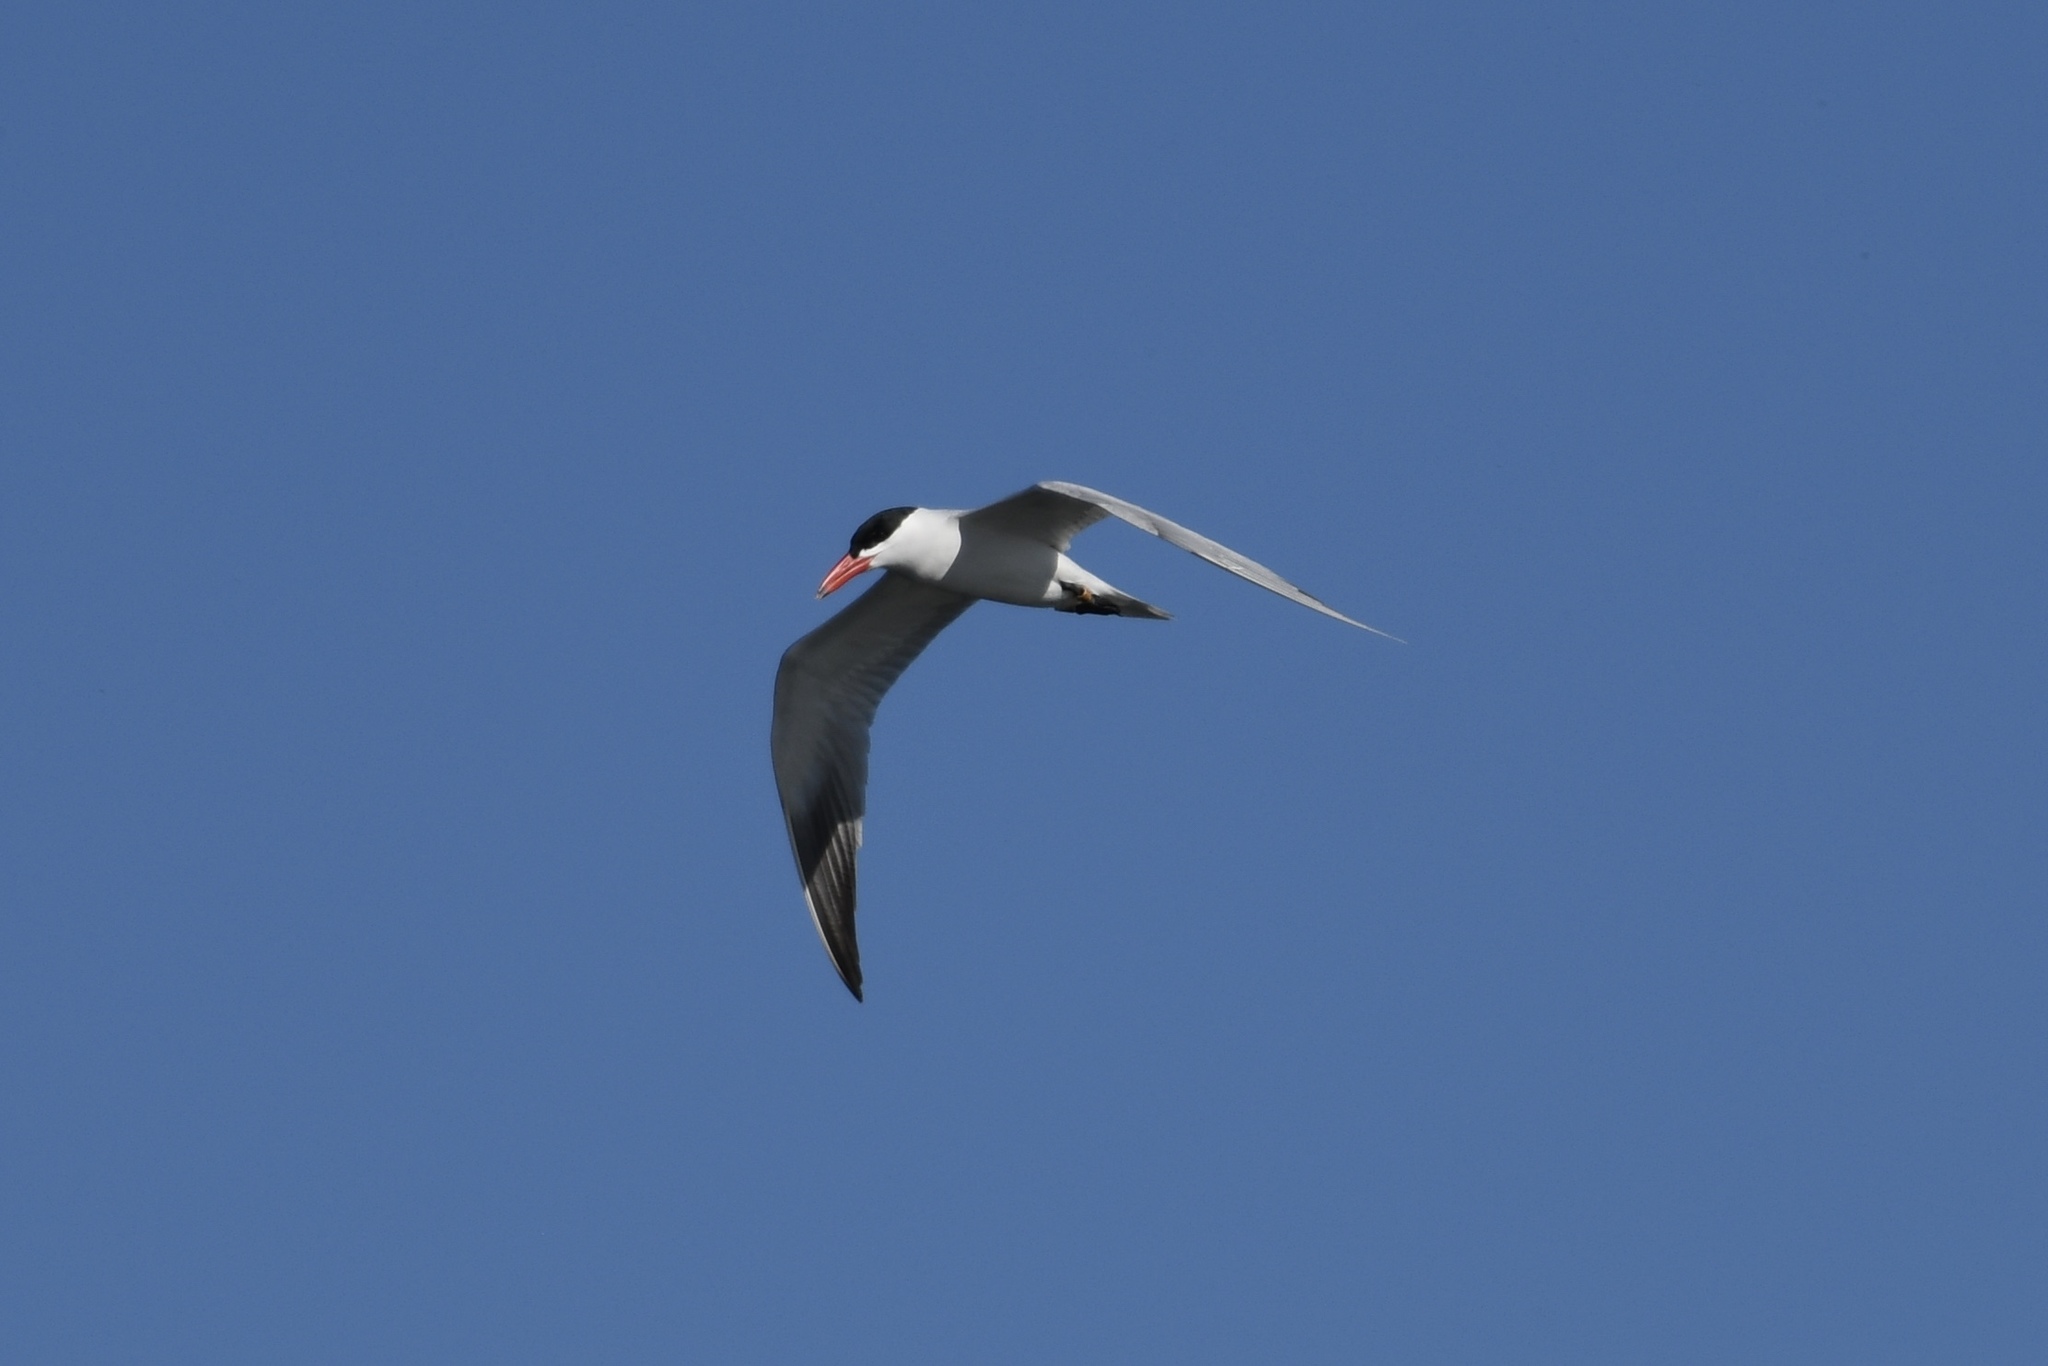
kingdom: Animalia
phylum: Chordata
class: Aves
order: Charadriiformes
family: Laridae
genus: Hydroprogne
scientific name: Hydroprogne caspia
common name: Caspian tern
